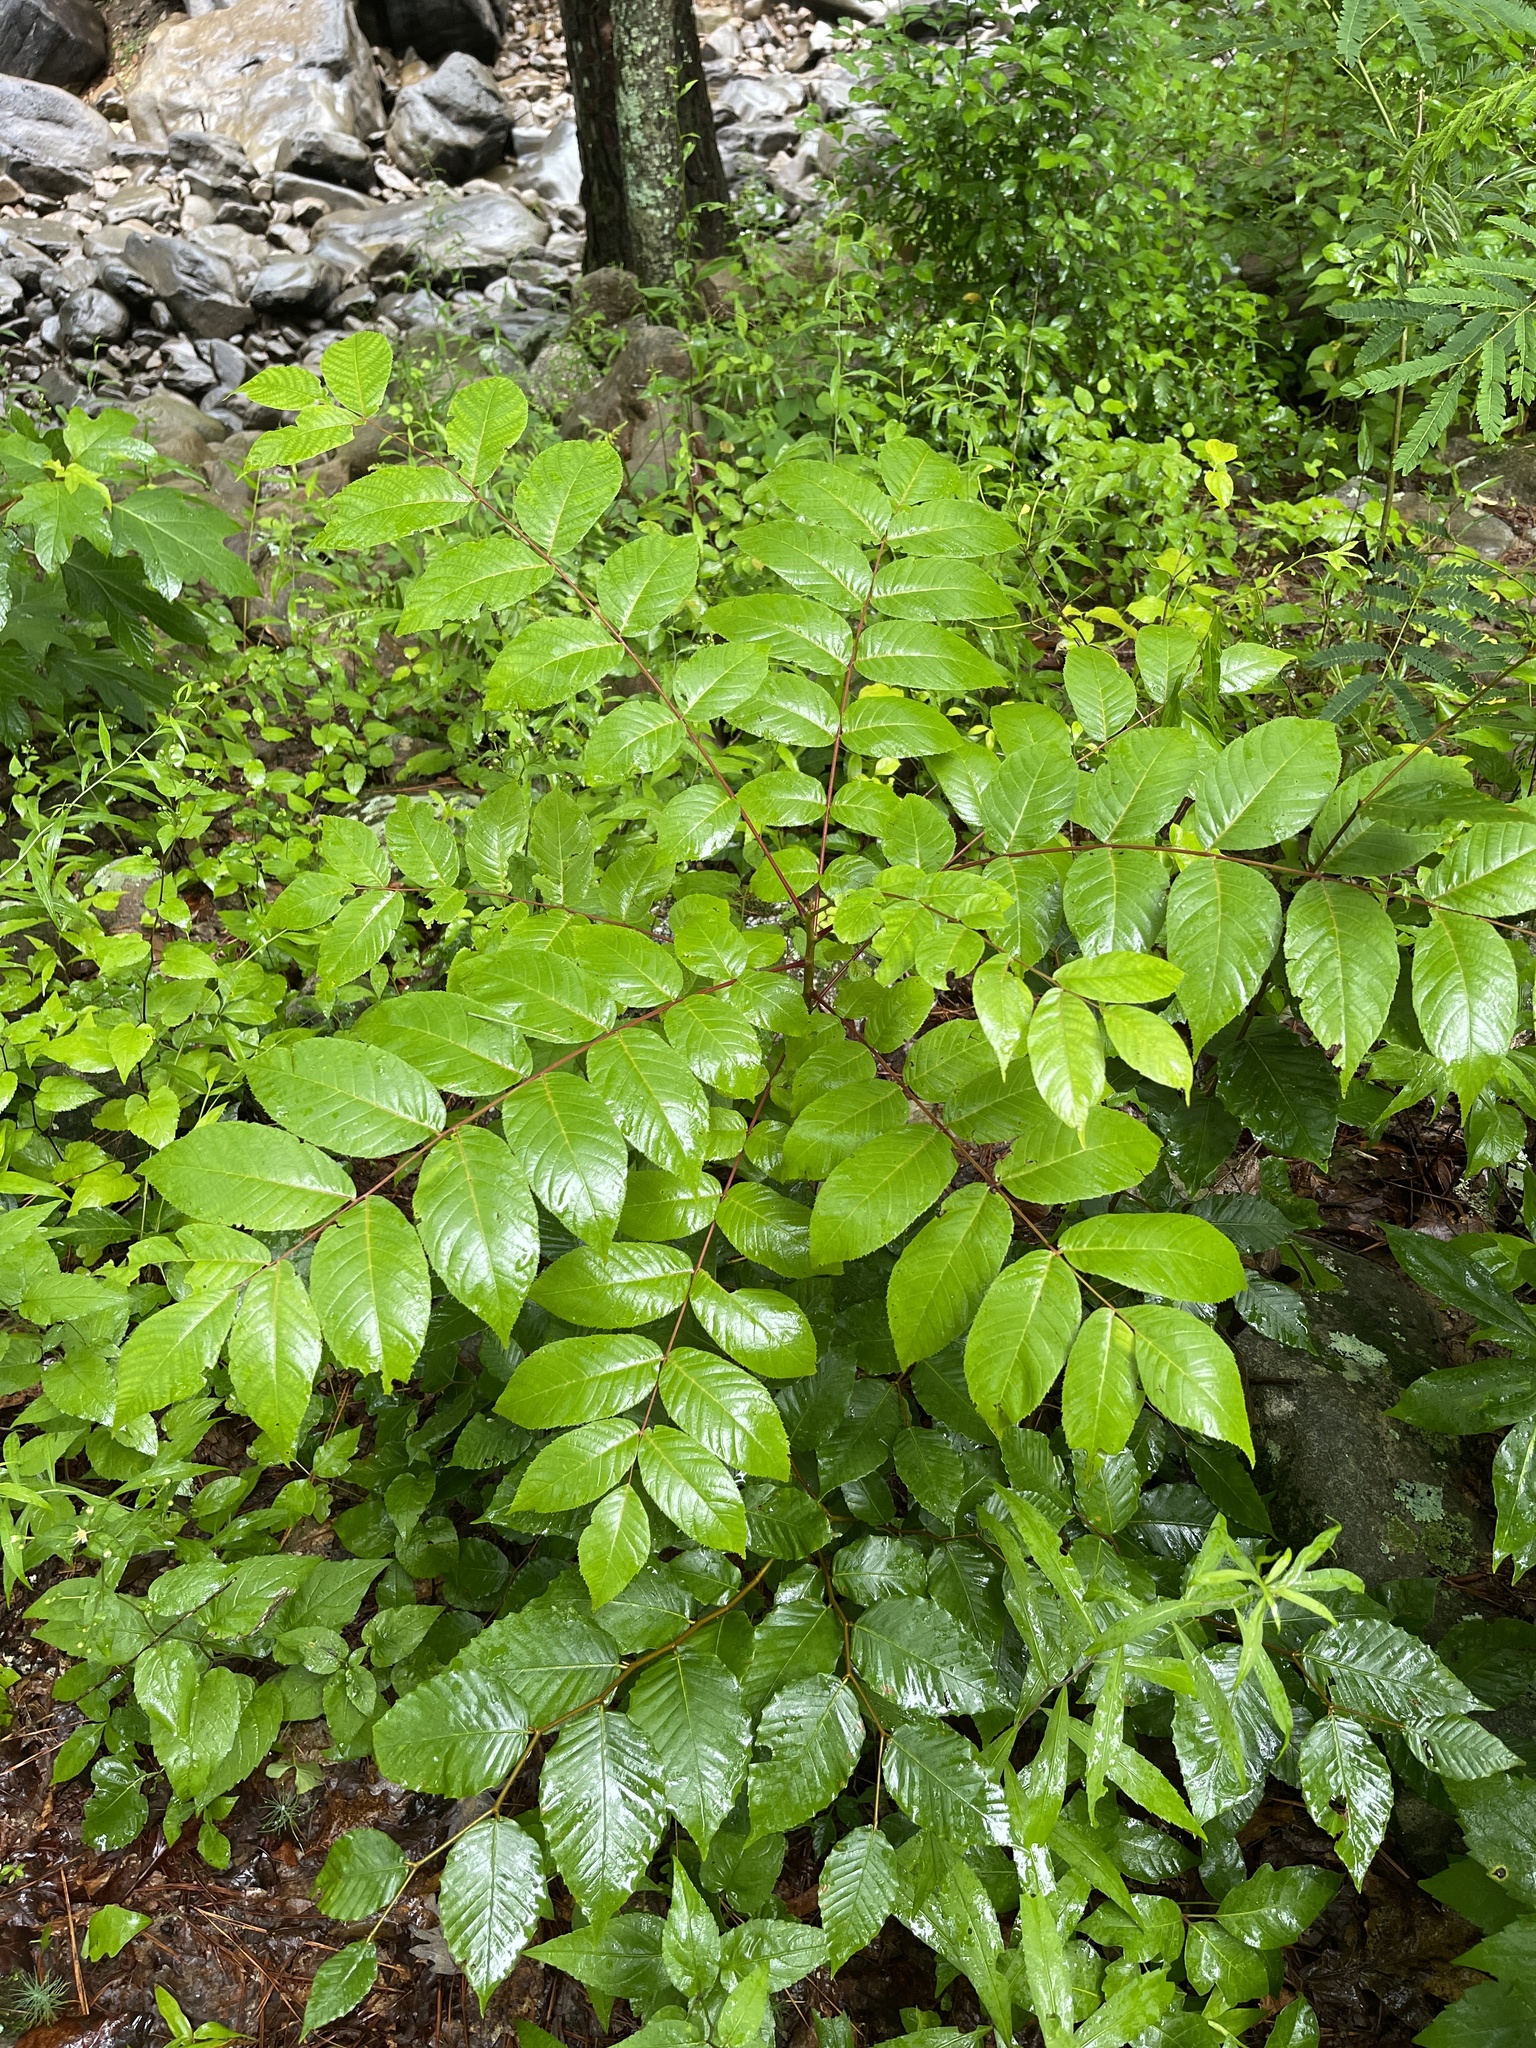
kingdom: Plantae
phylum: Tracheophyta
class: Magnoliopsida
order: Fagales
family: Juglandaceae
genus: Juglans
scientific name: Juglans nigra
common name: Black walnut
